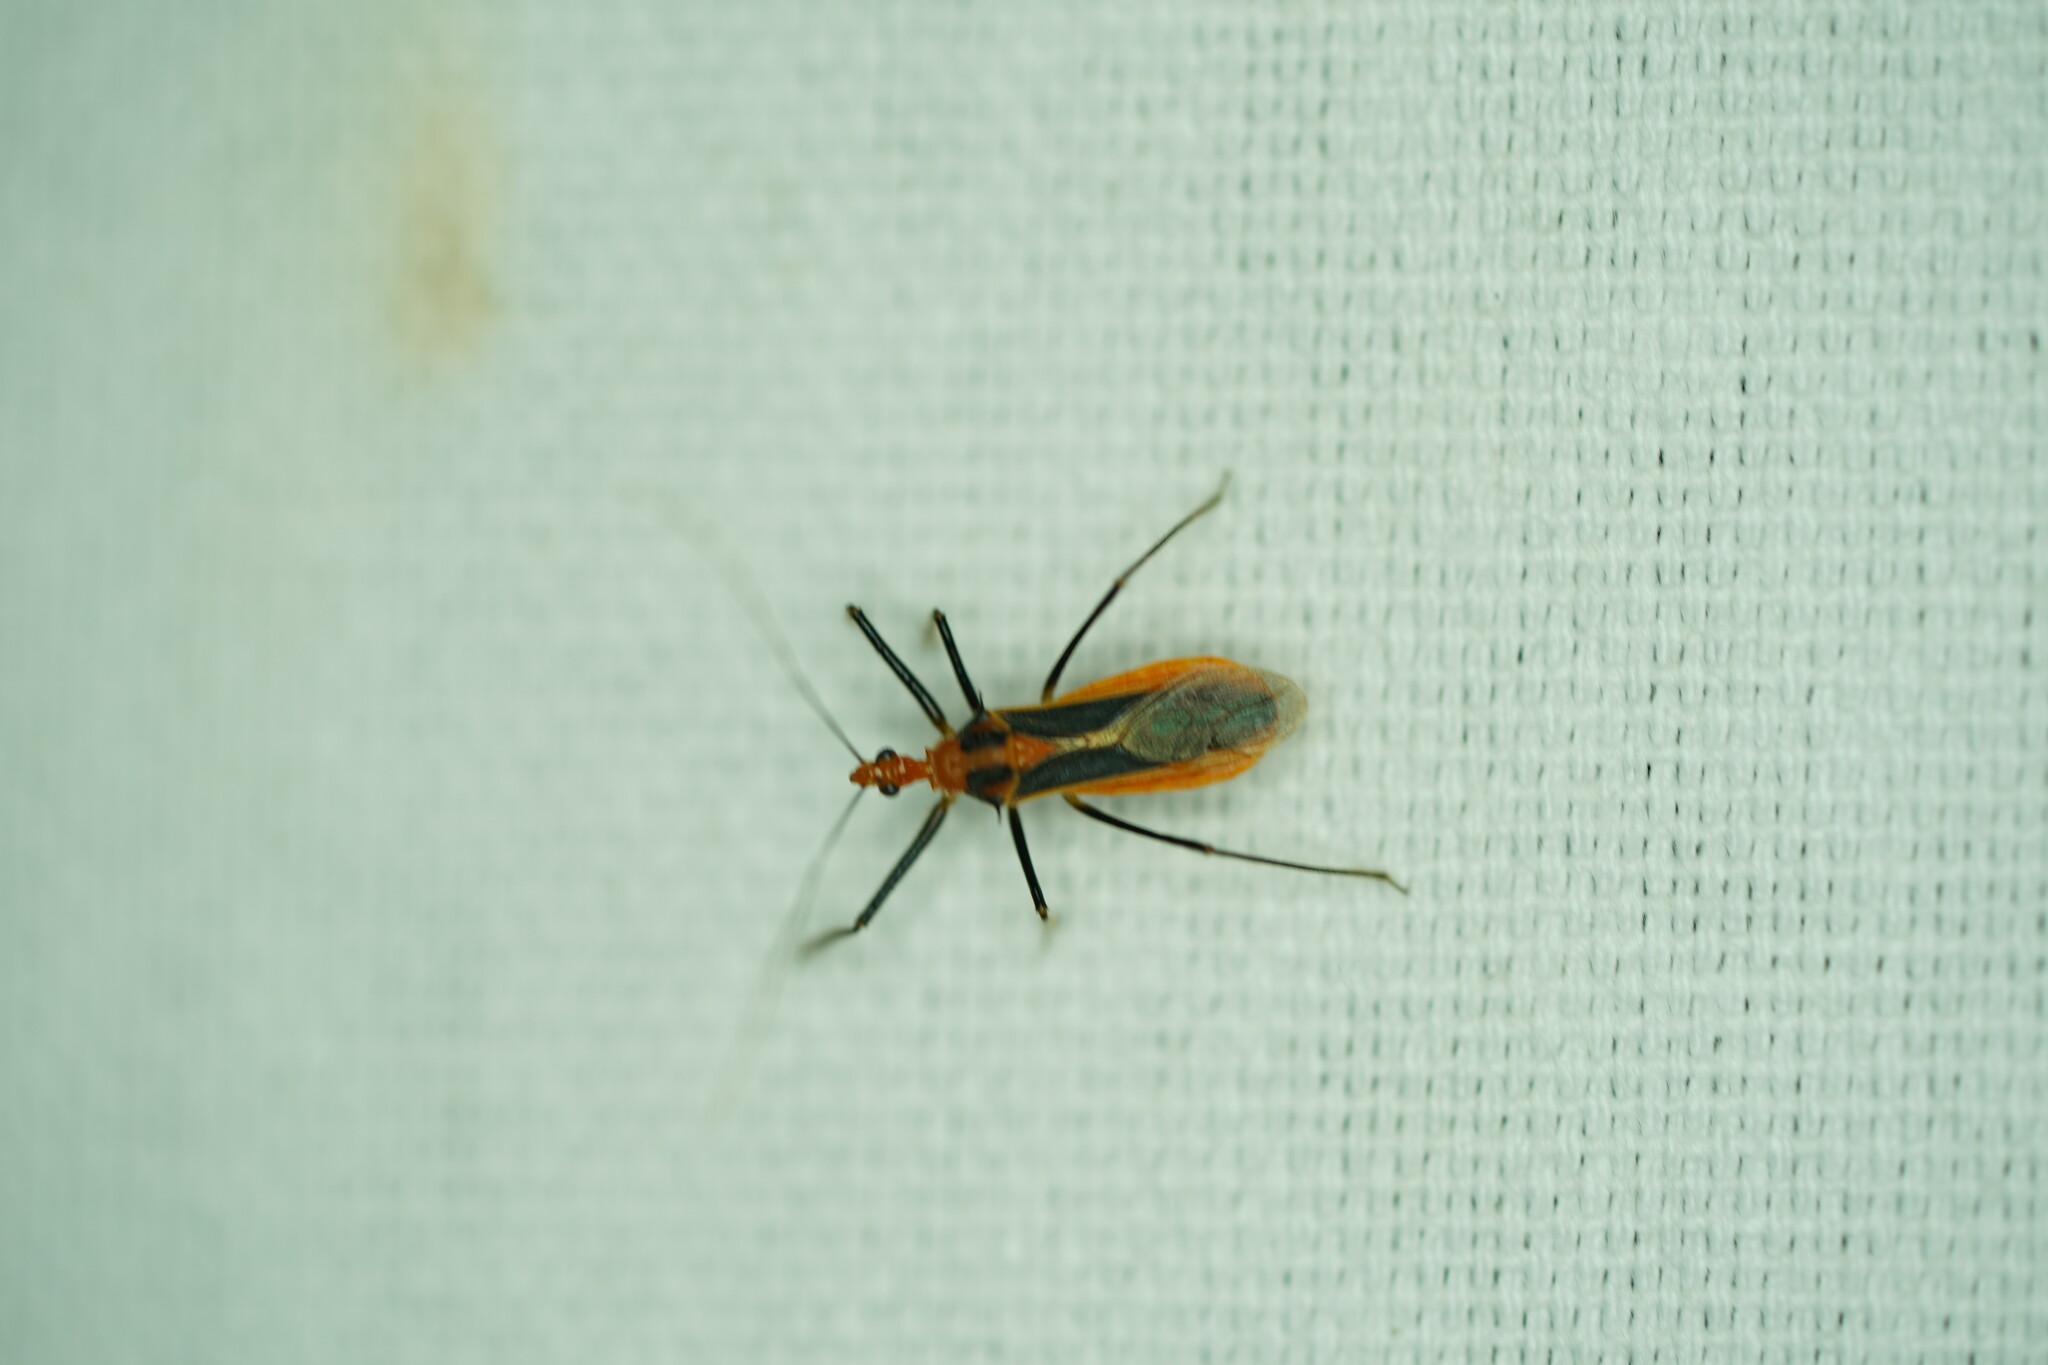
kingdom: Animalia
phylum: Arthropoda
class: Insecta
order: Hemiptera
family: Reduviidae
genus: Repipta
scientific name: Repipta taurus
